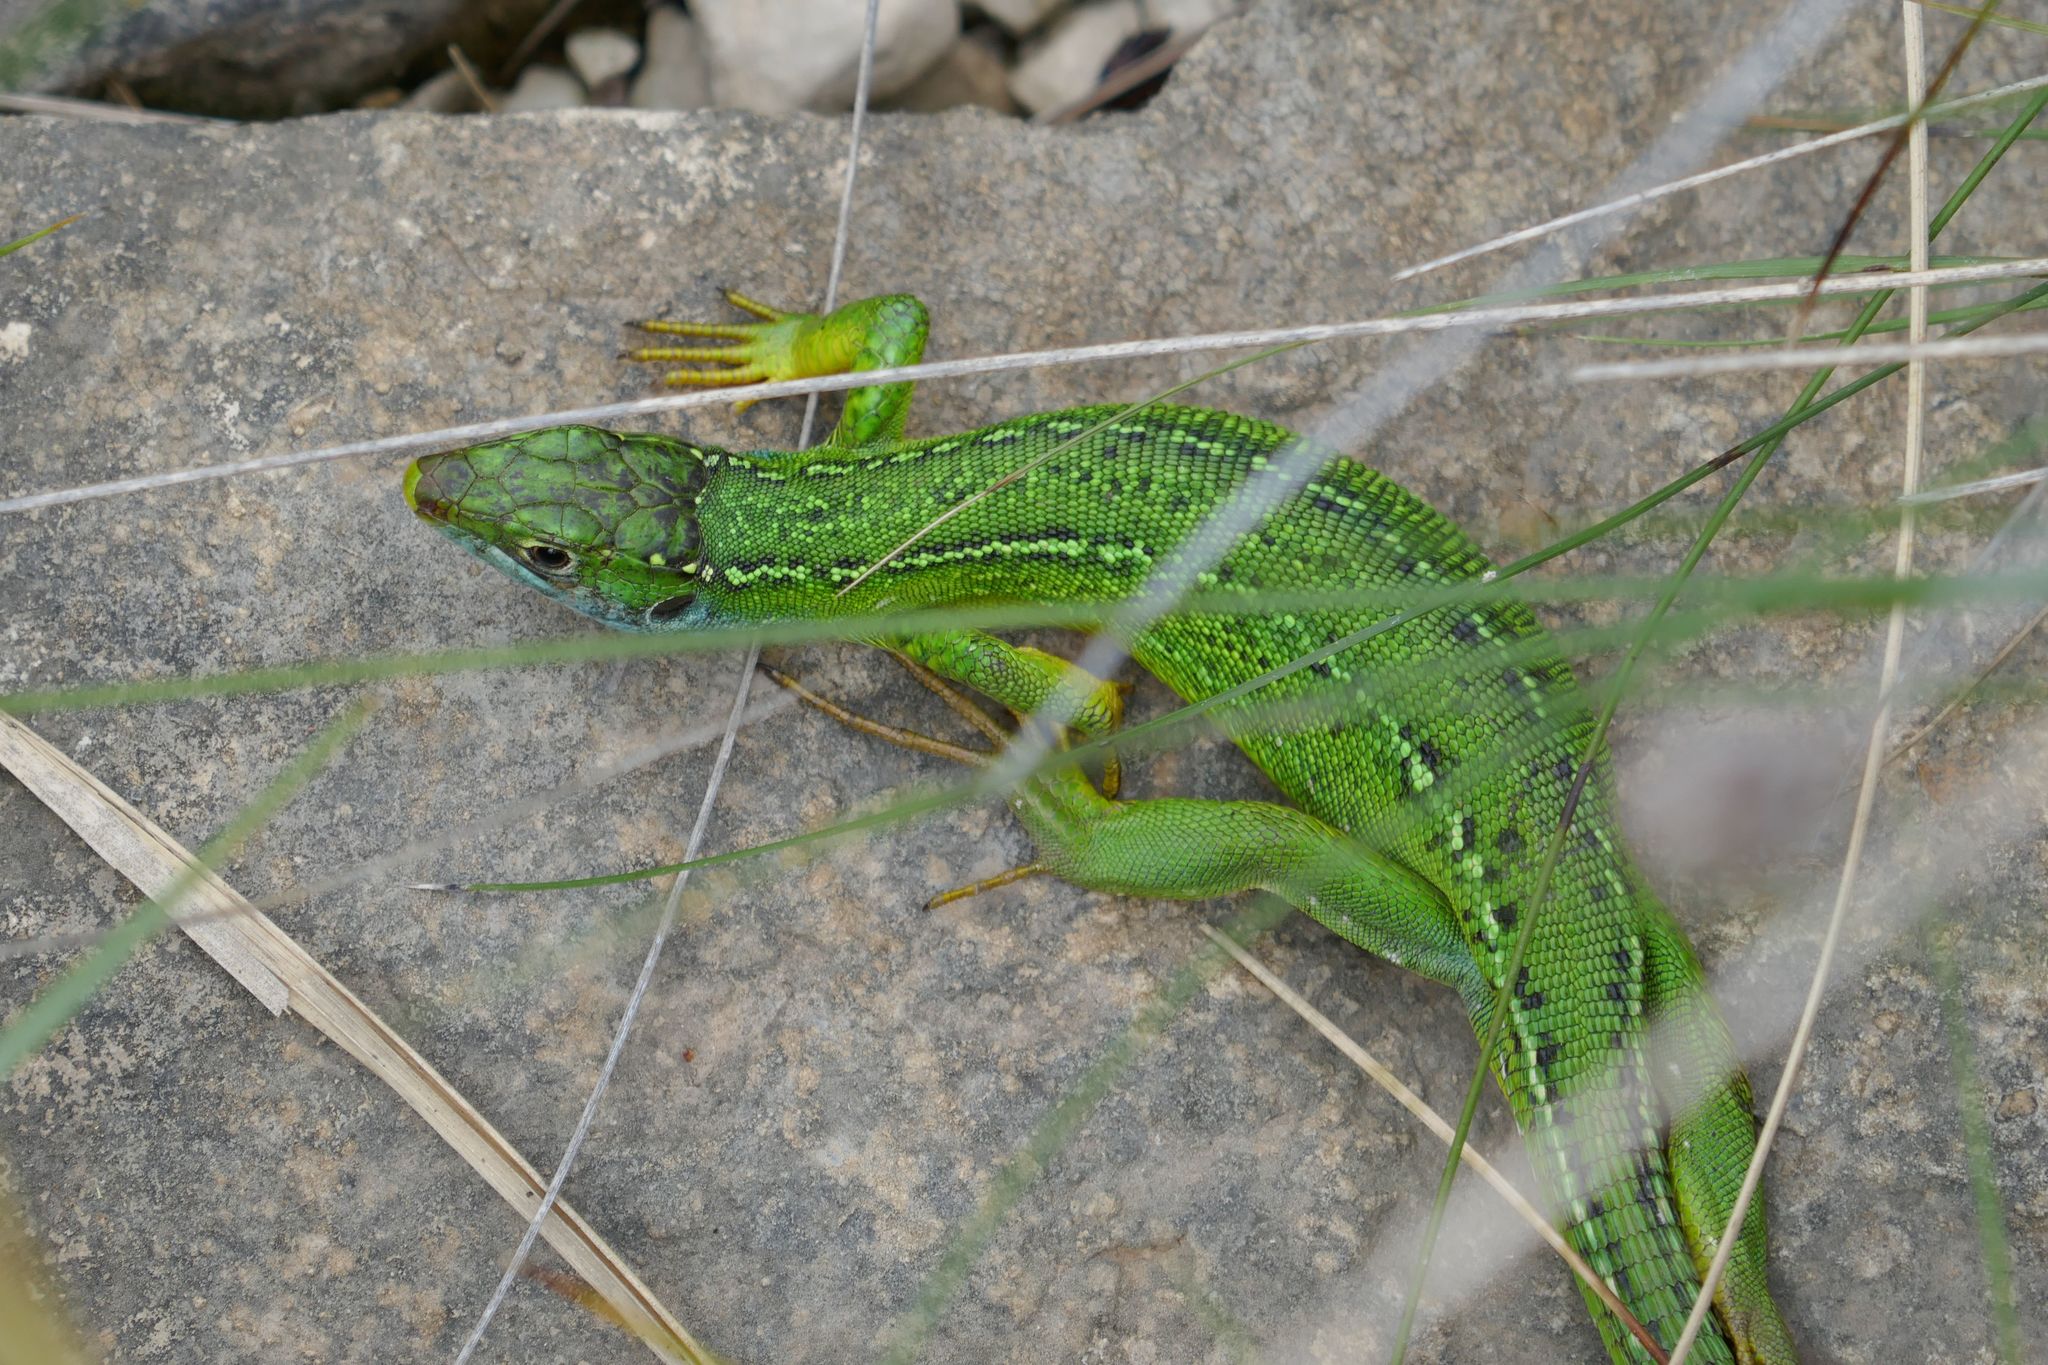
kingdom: Animalia
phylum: Chordata
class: Squamata
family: Lacertidae
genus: Lacerta
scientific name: Lacerta bilineata
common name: Western green lizard
